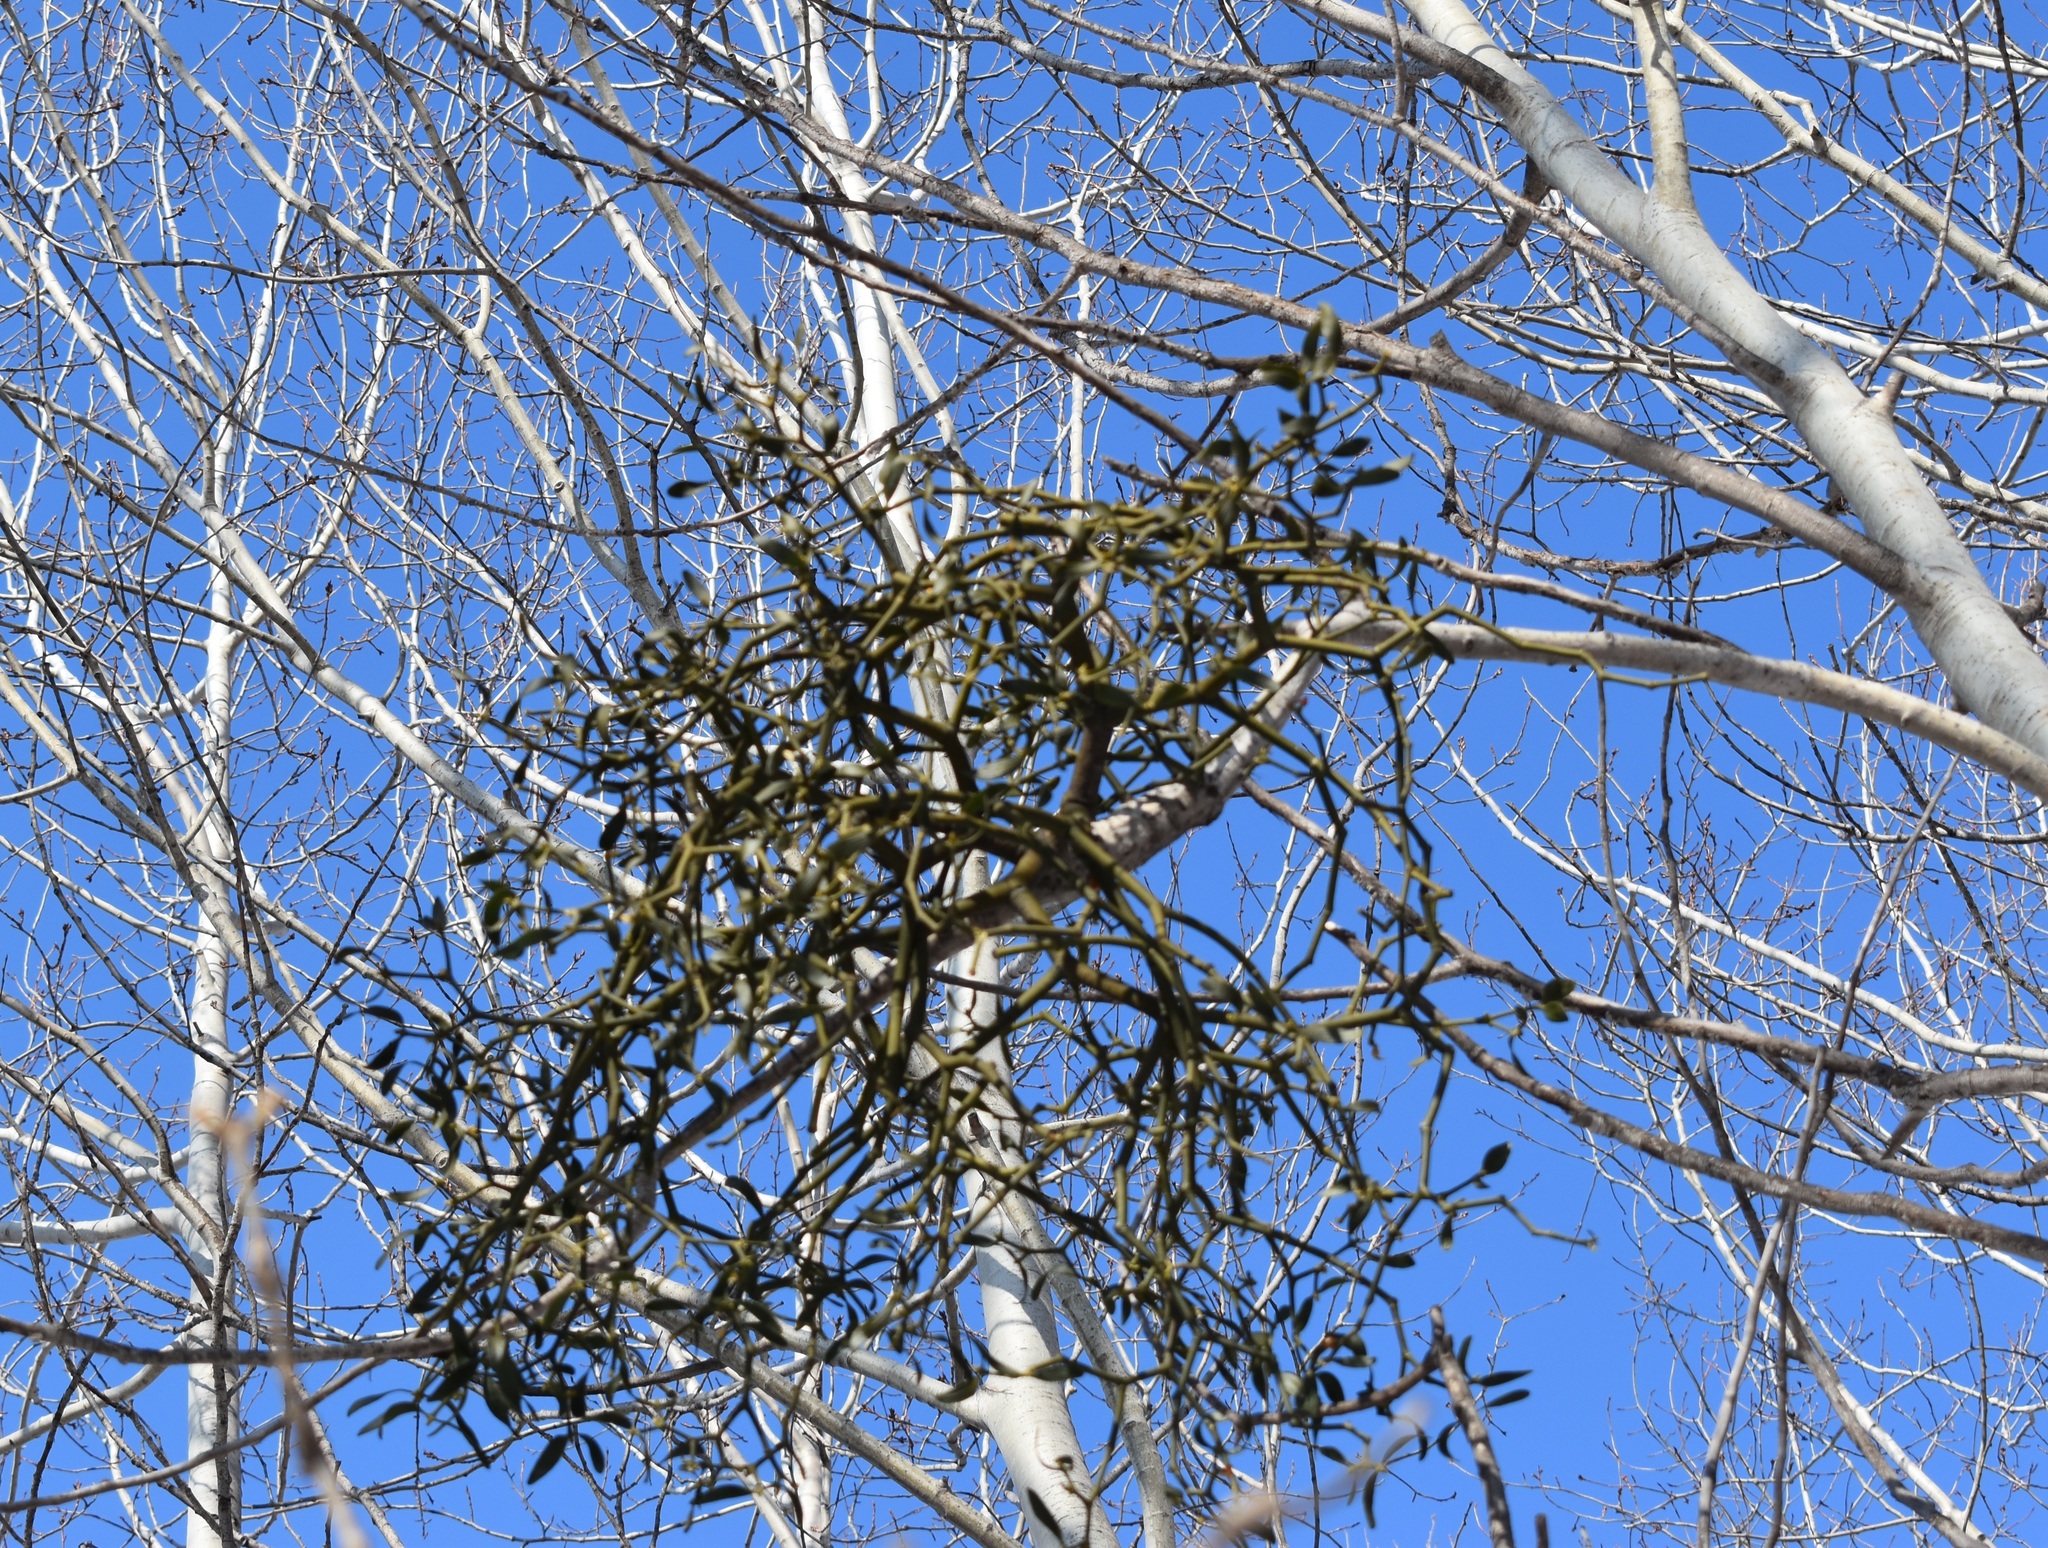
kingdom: Plantae
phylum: Tracheophyta
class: Magnoliopsida
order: Santalales
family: Viscaceae
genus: Viscum
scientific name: Viscum coloratum
